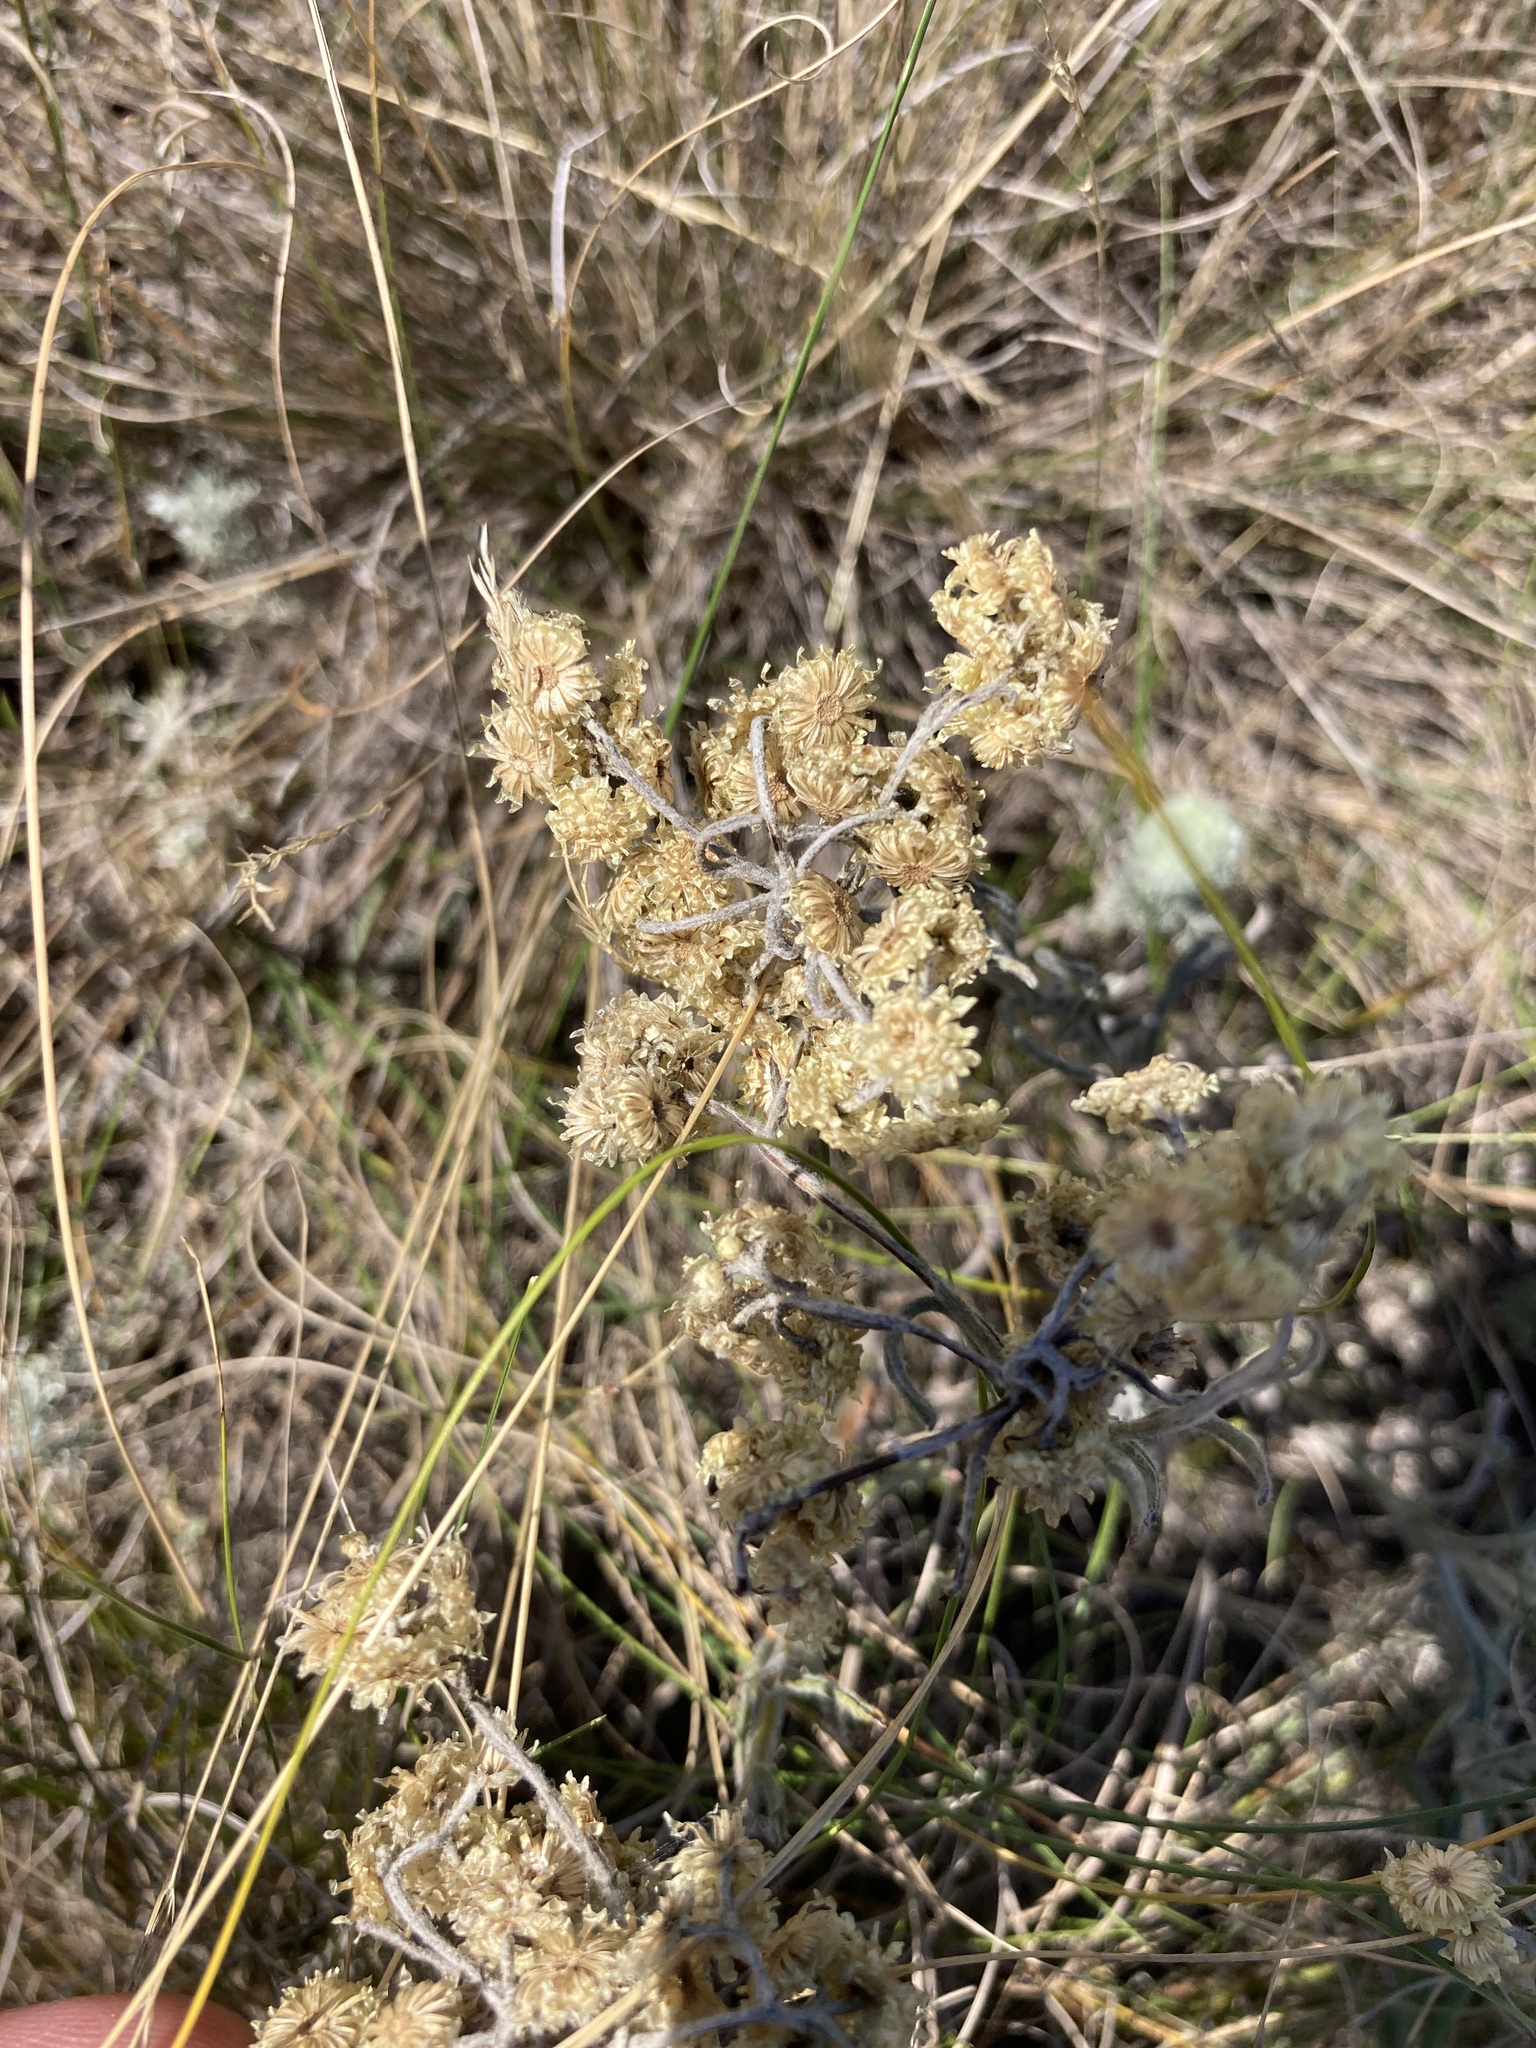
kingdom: Plantae
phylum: Tracheophyta
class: Magnoliopsida
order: Asterales
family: Asteraceae
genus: Helichrysum
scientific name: Helichrysum arenarium
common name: Strawflower
